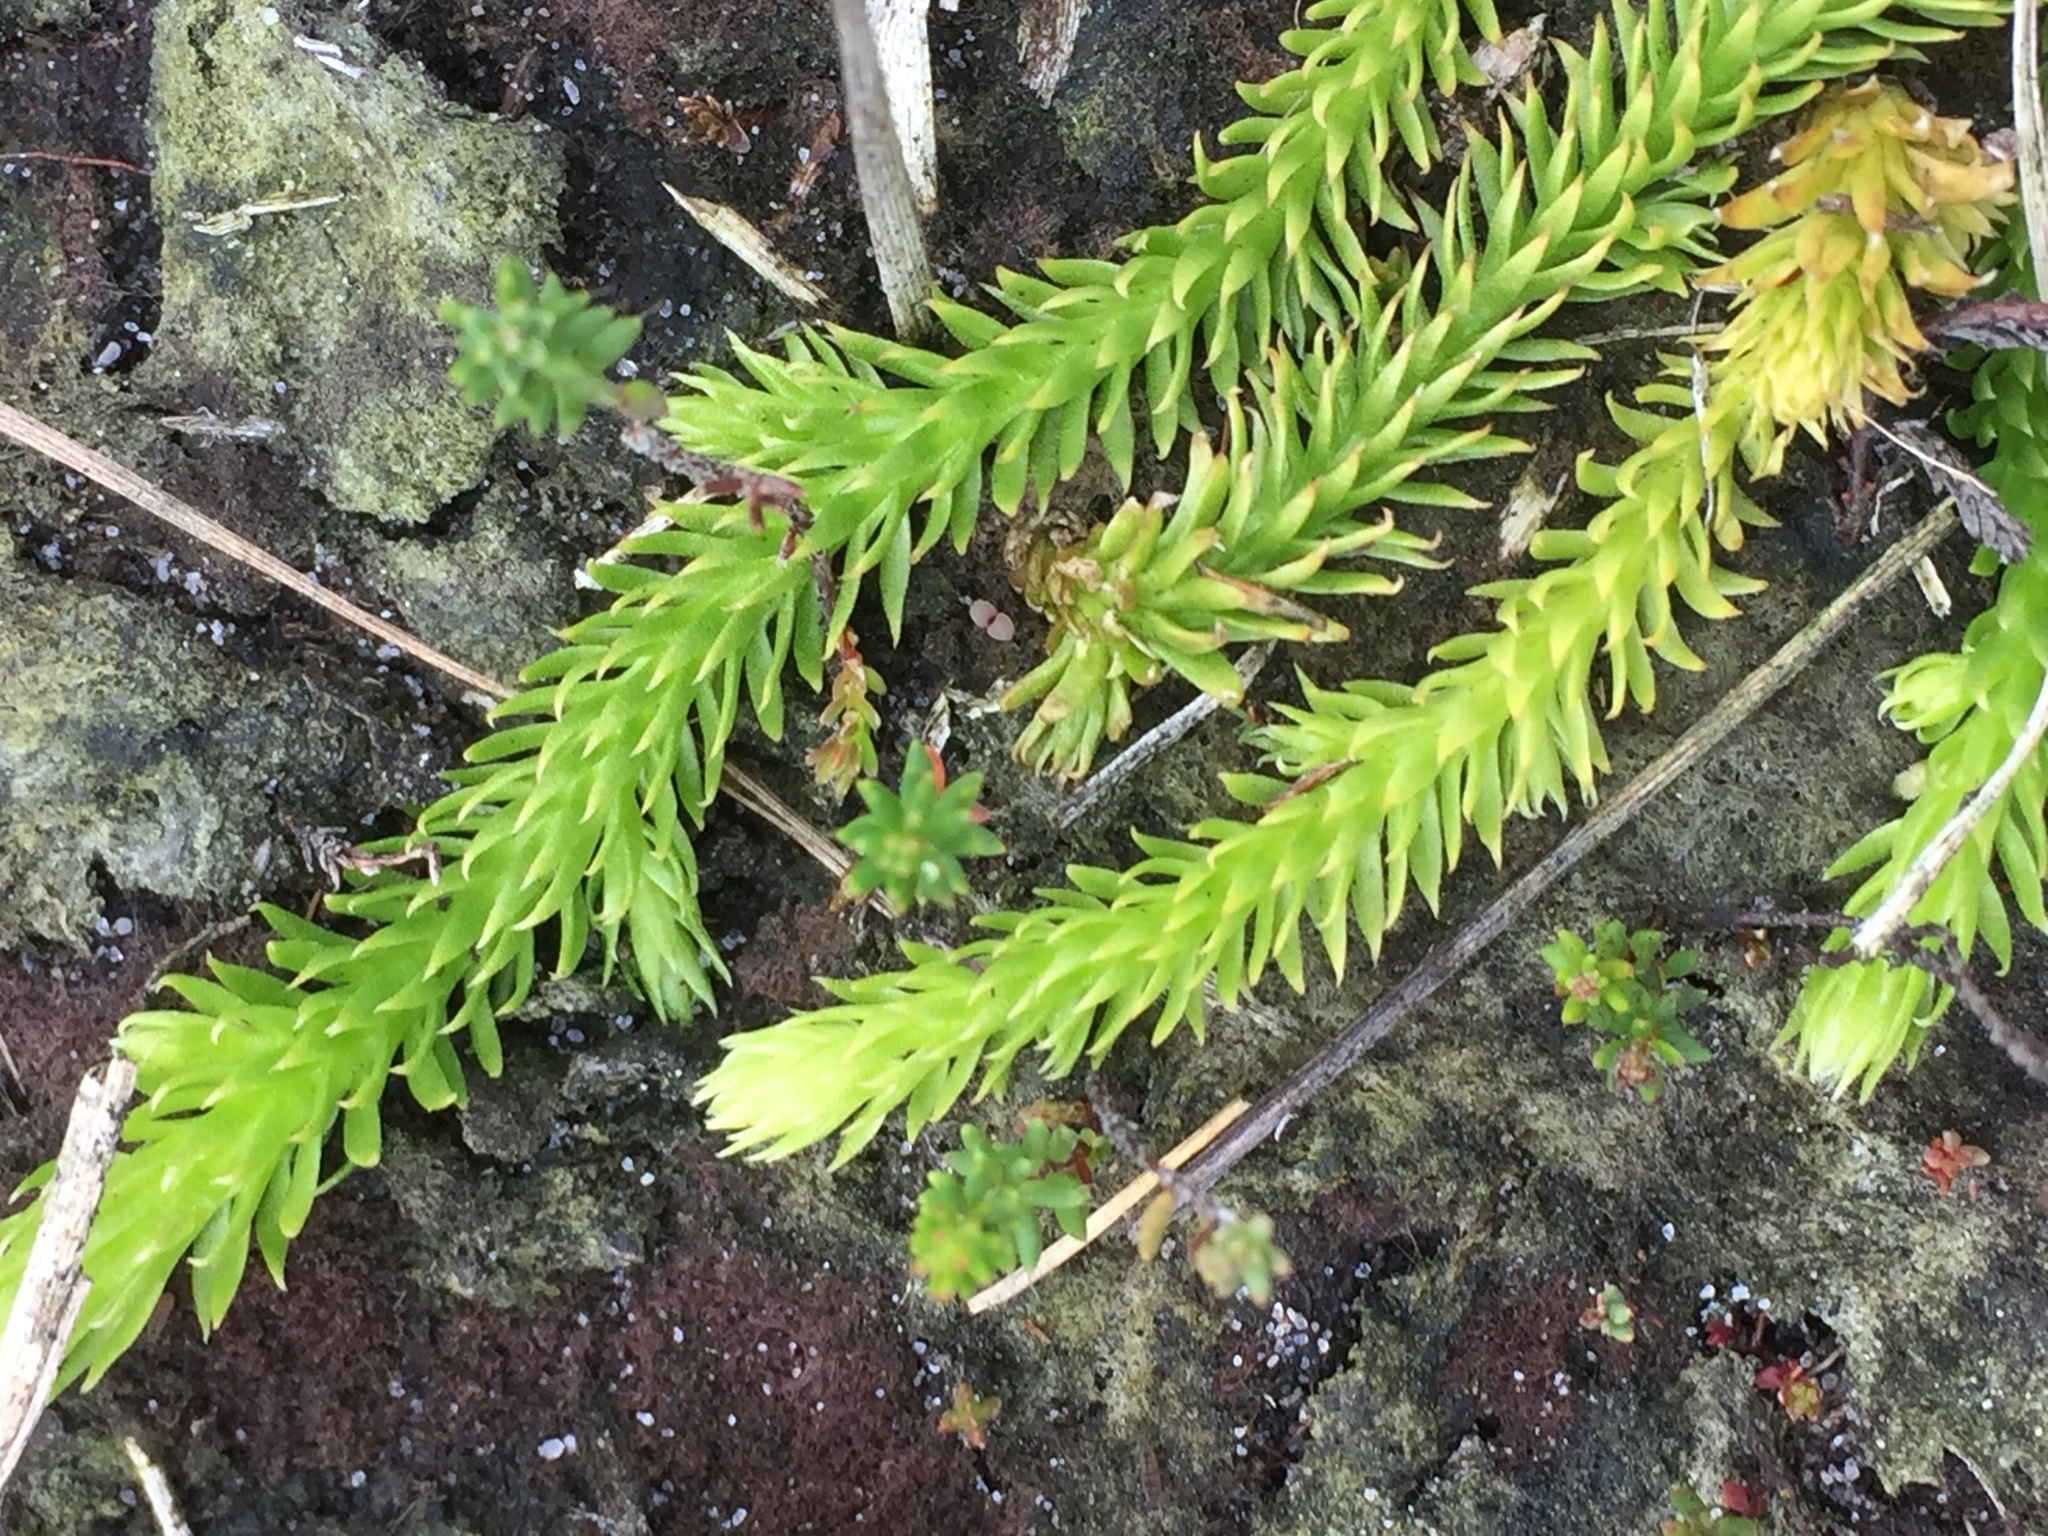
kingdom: Plantae
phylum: Tracheophyta
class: Lycopodiopsida
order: Lycopodiales
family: Lycopodiaceae
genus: Lycopodiella
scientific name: Lycopodiella inundata
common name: Marsh clubmoss
